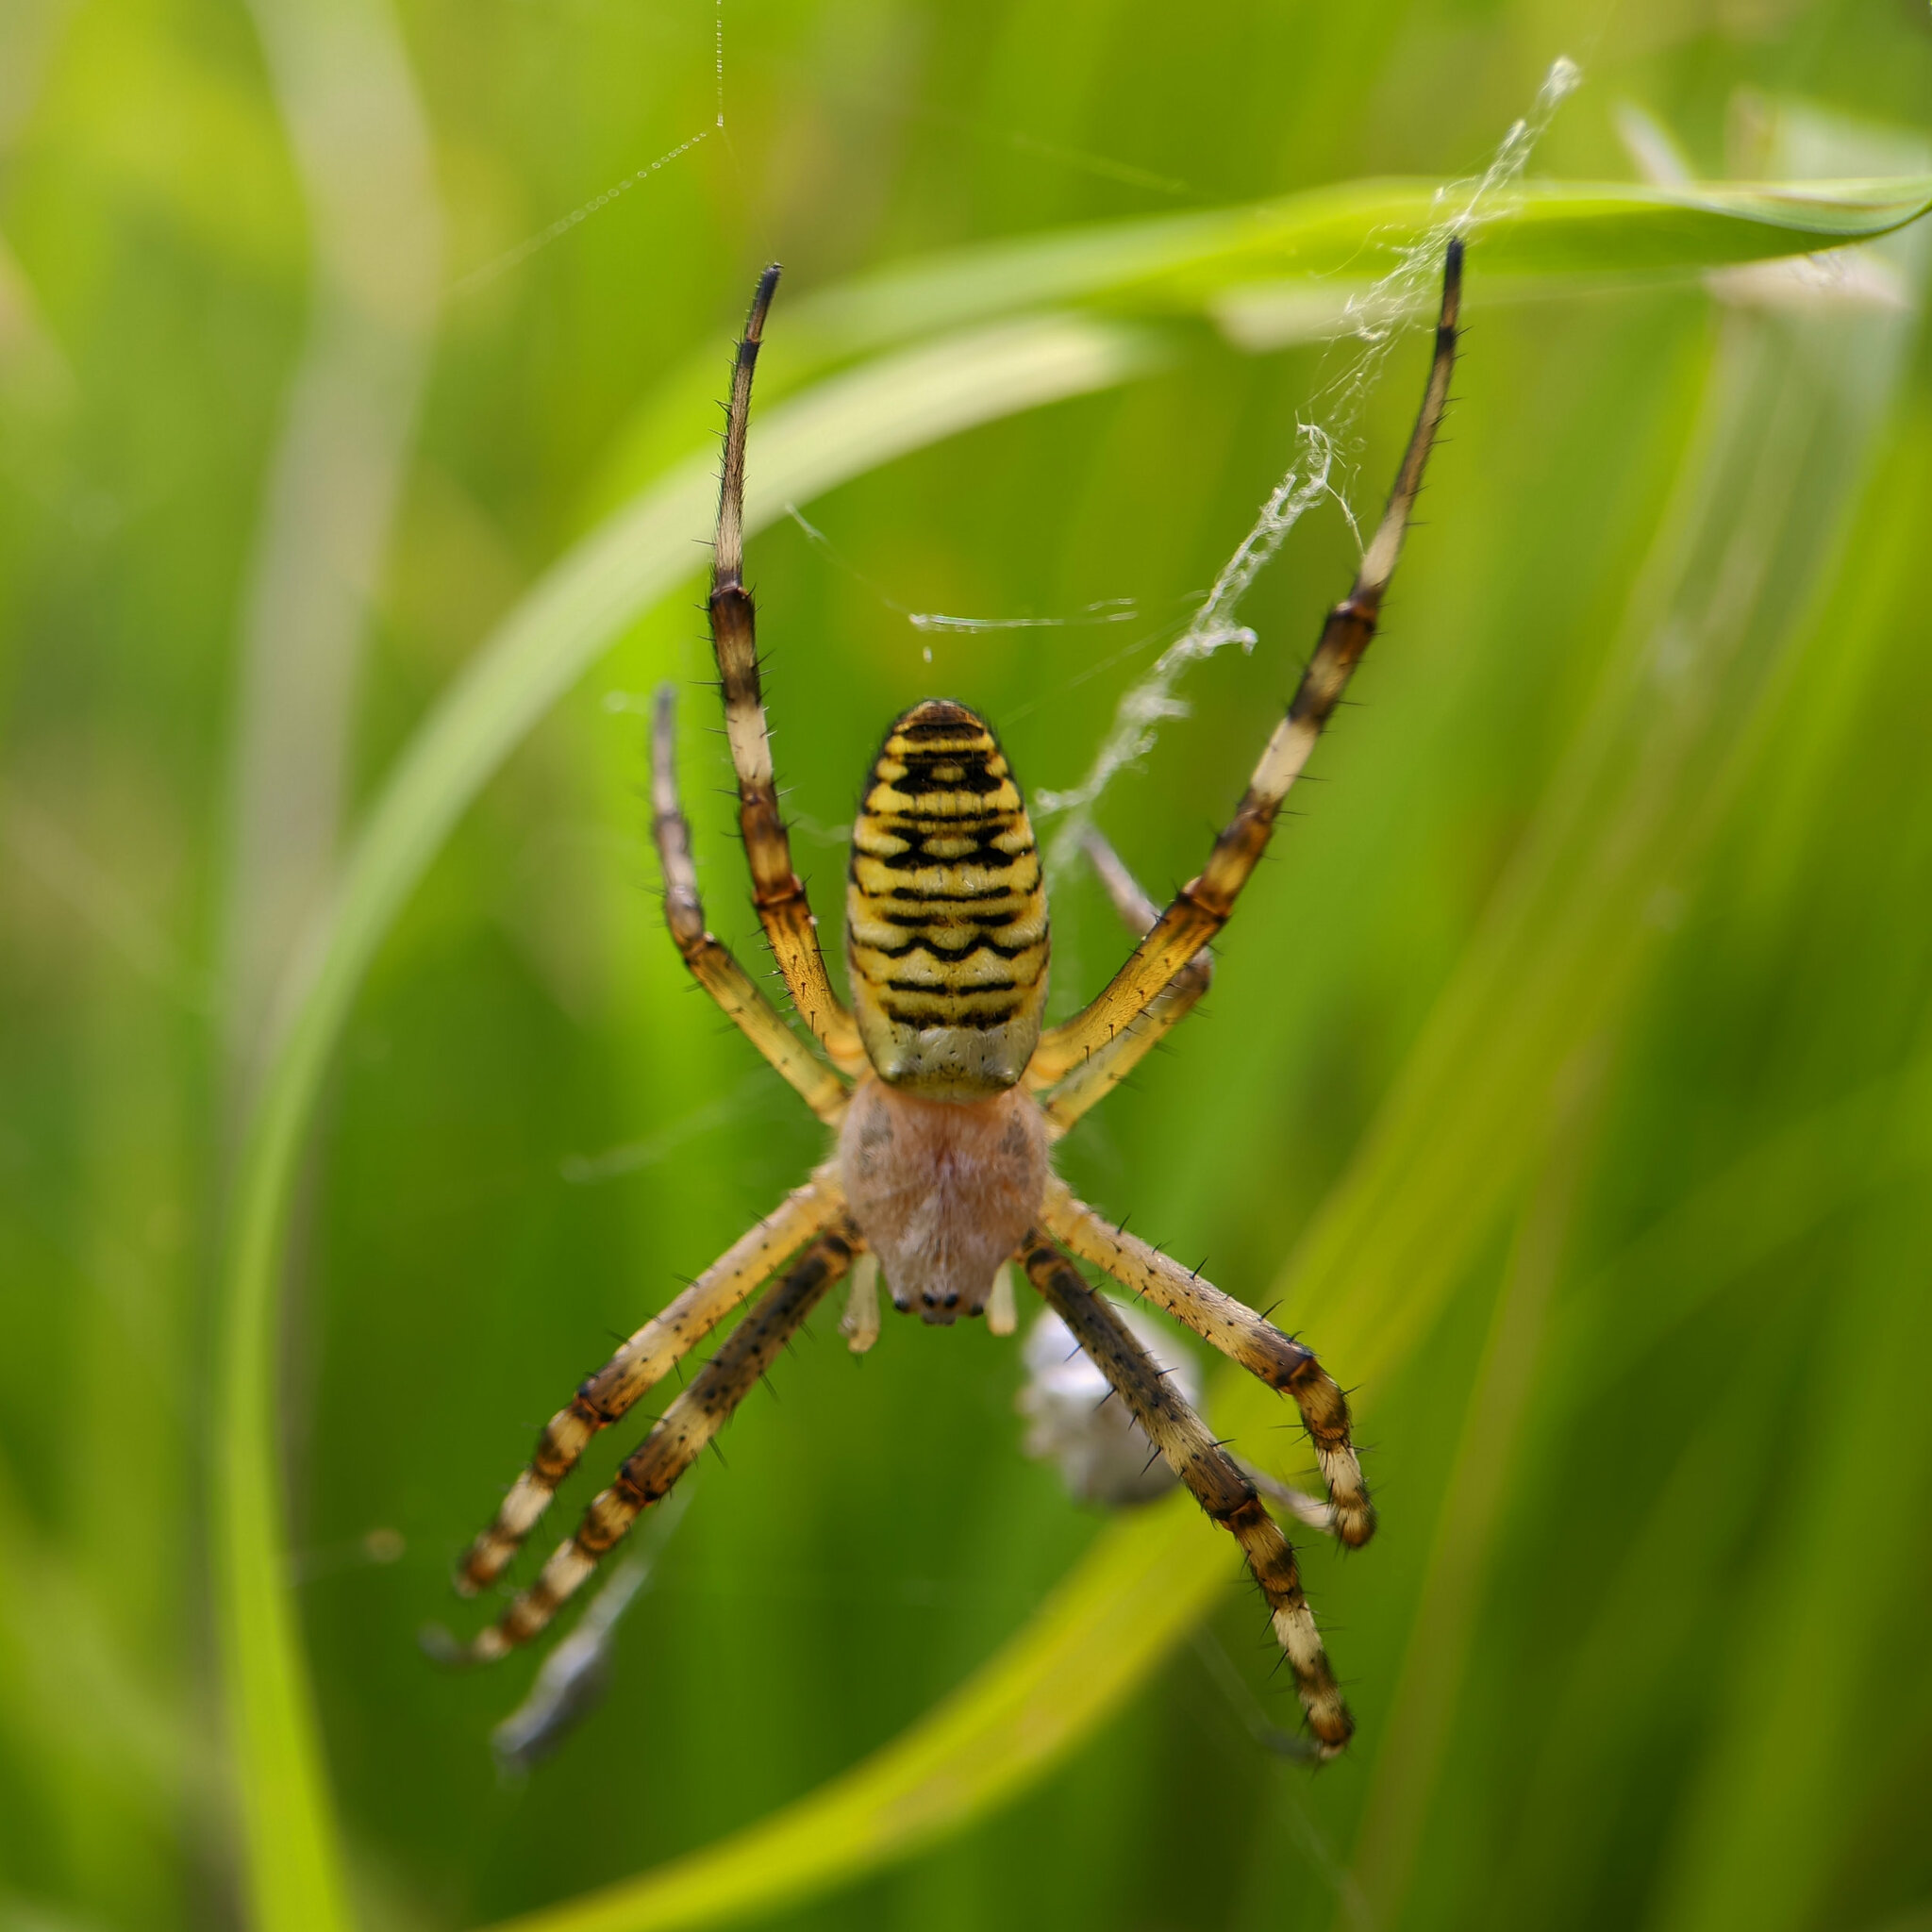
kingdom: Animalia
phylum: Arthropoda
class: Arachnida
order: Araneae
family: Araneidae
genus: Argiope
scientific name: Argiope bruennichi
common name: Wasp spider
